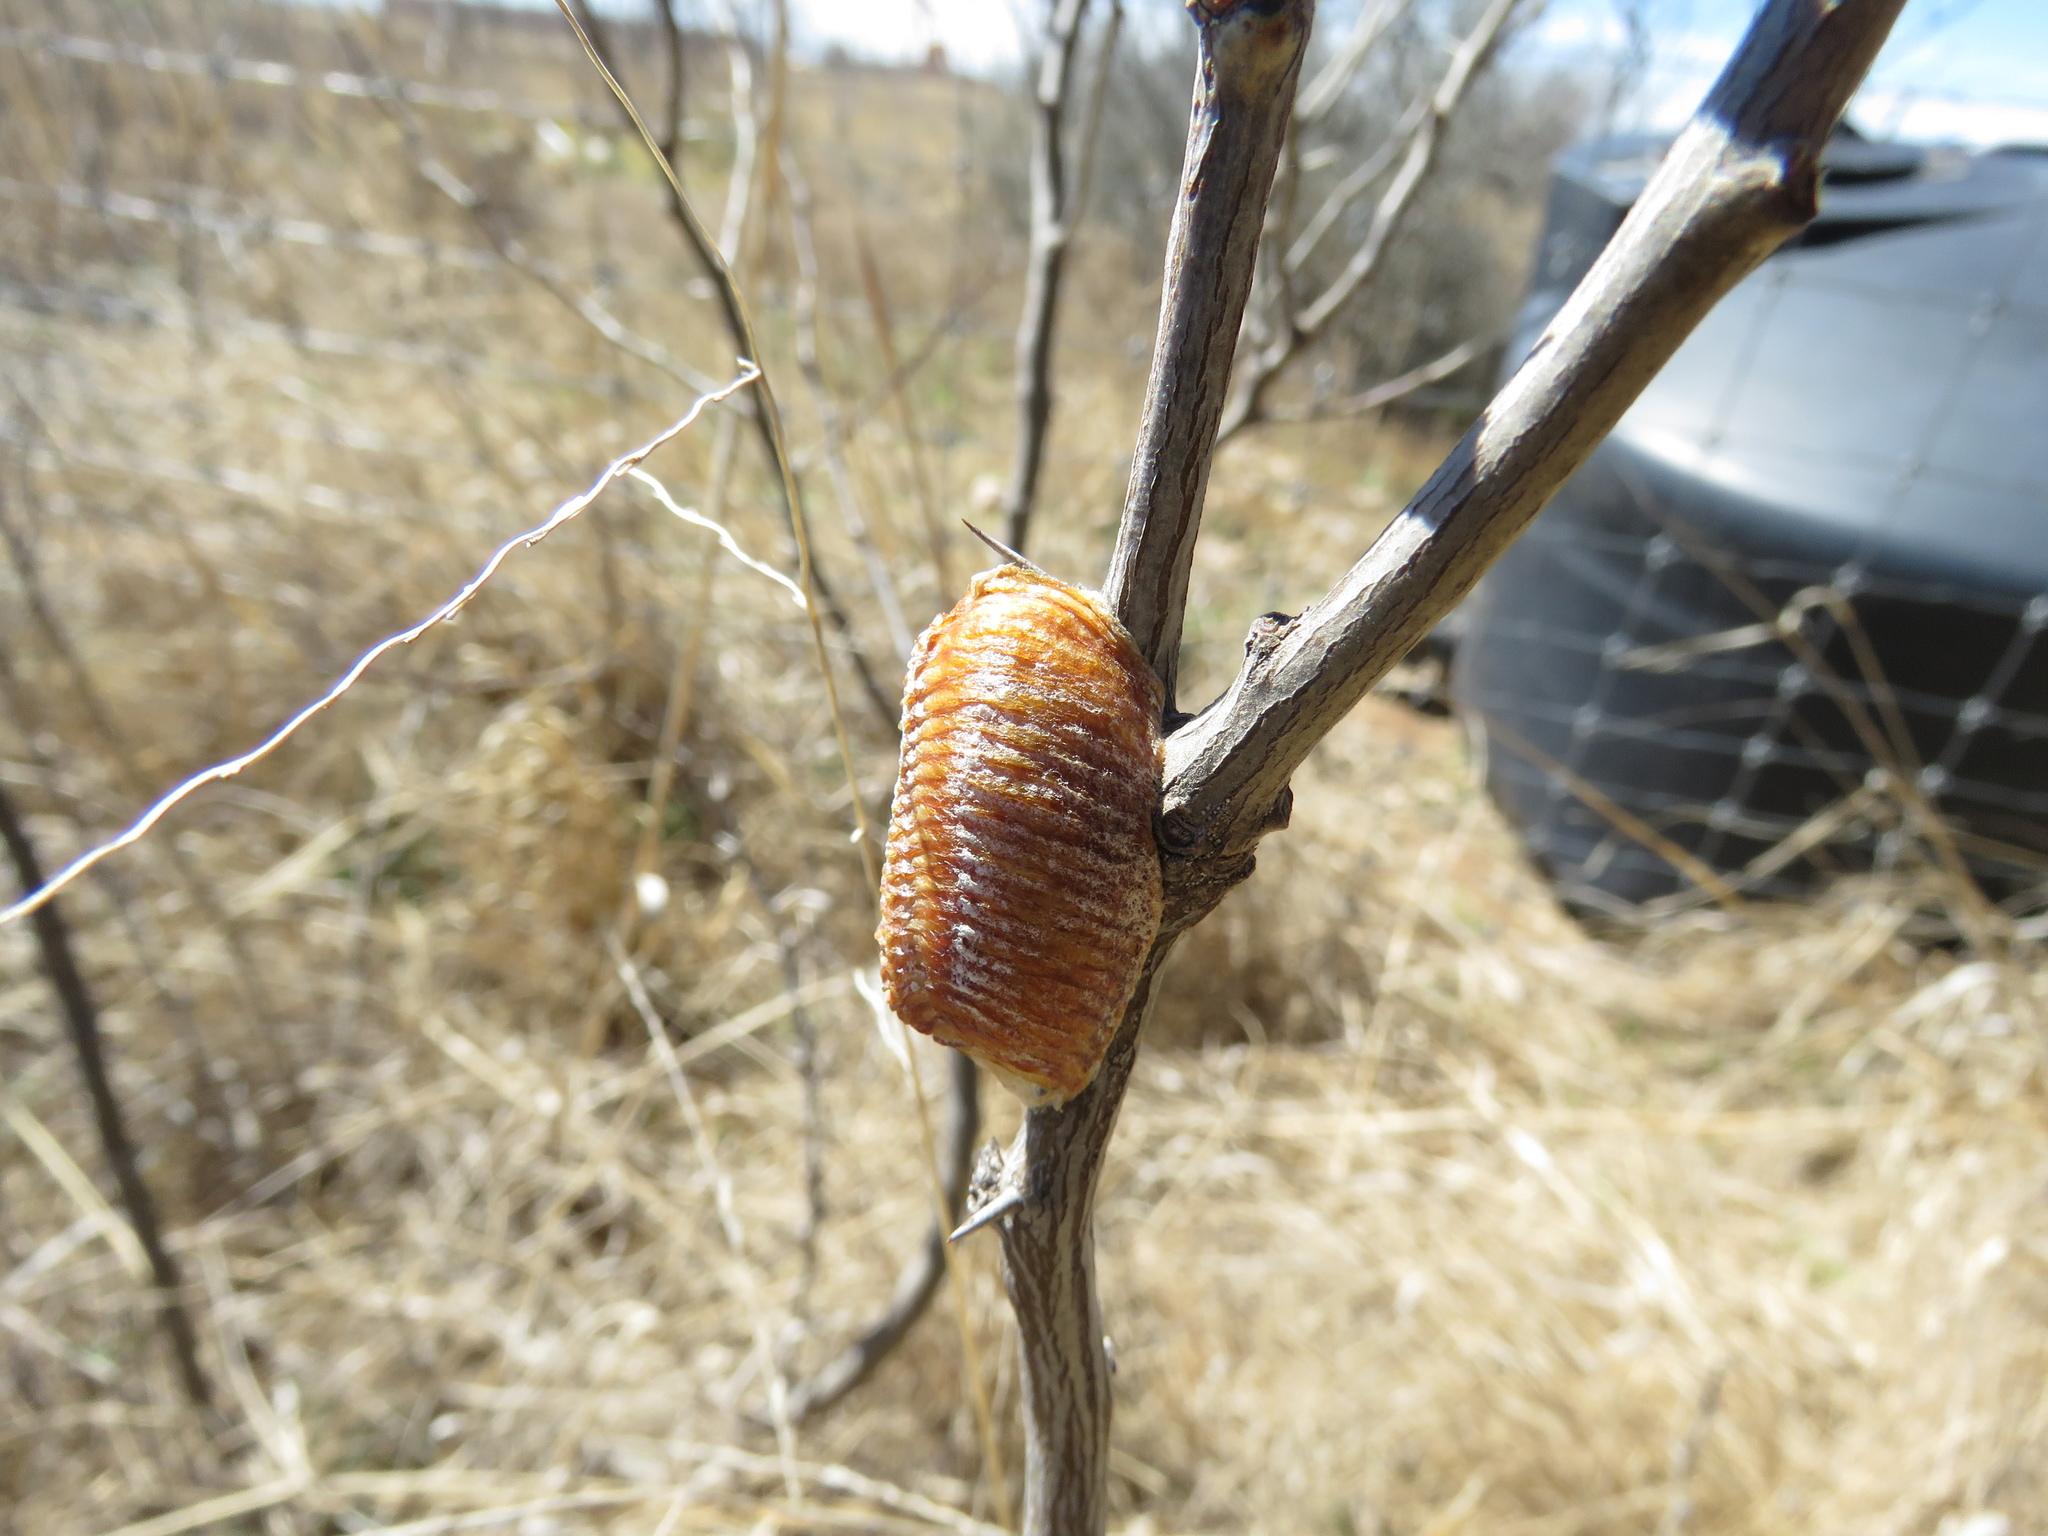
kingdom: Animalia
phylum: Arthropoda
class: Insecta
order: Mantodea
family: Mantidae
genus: Stagmomantis
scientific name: Stagmomantis limbata
